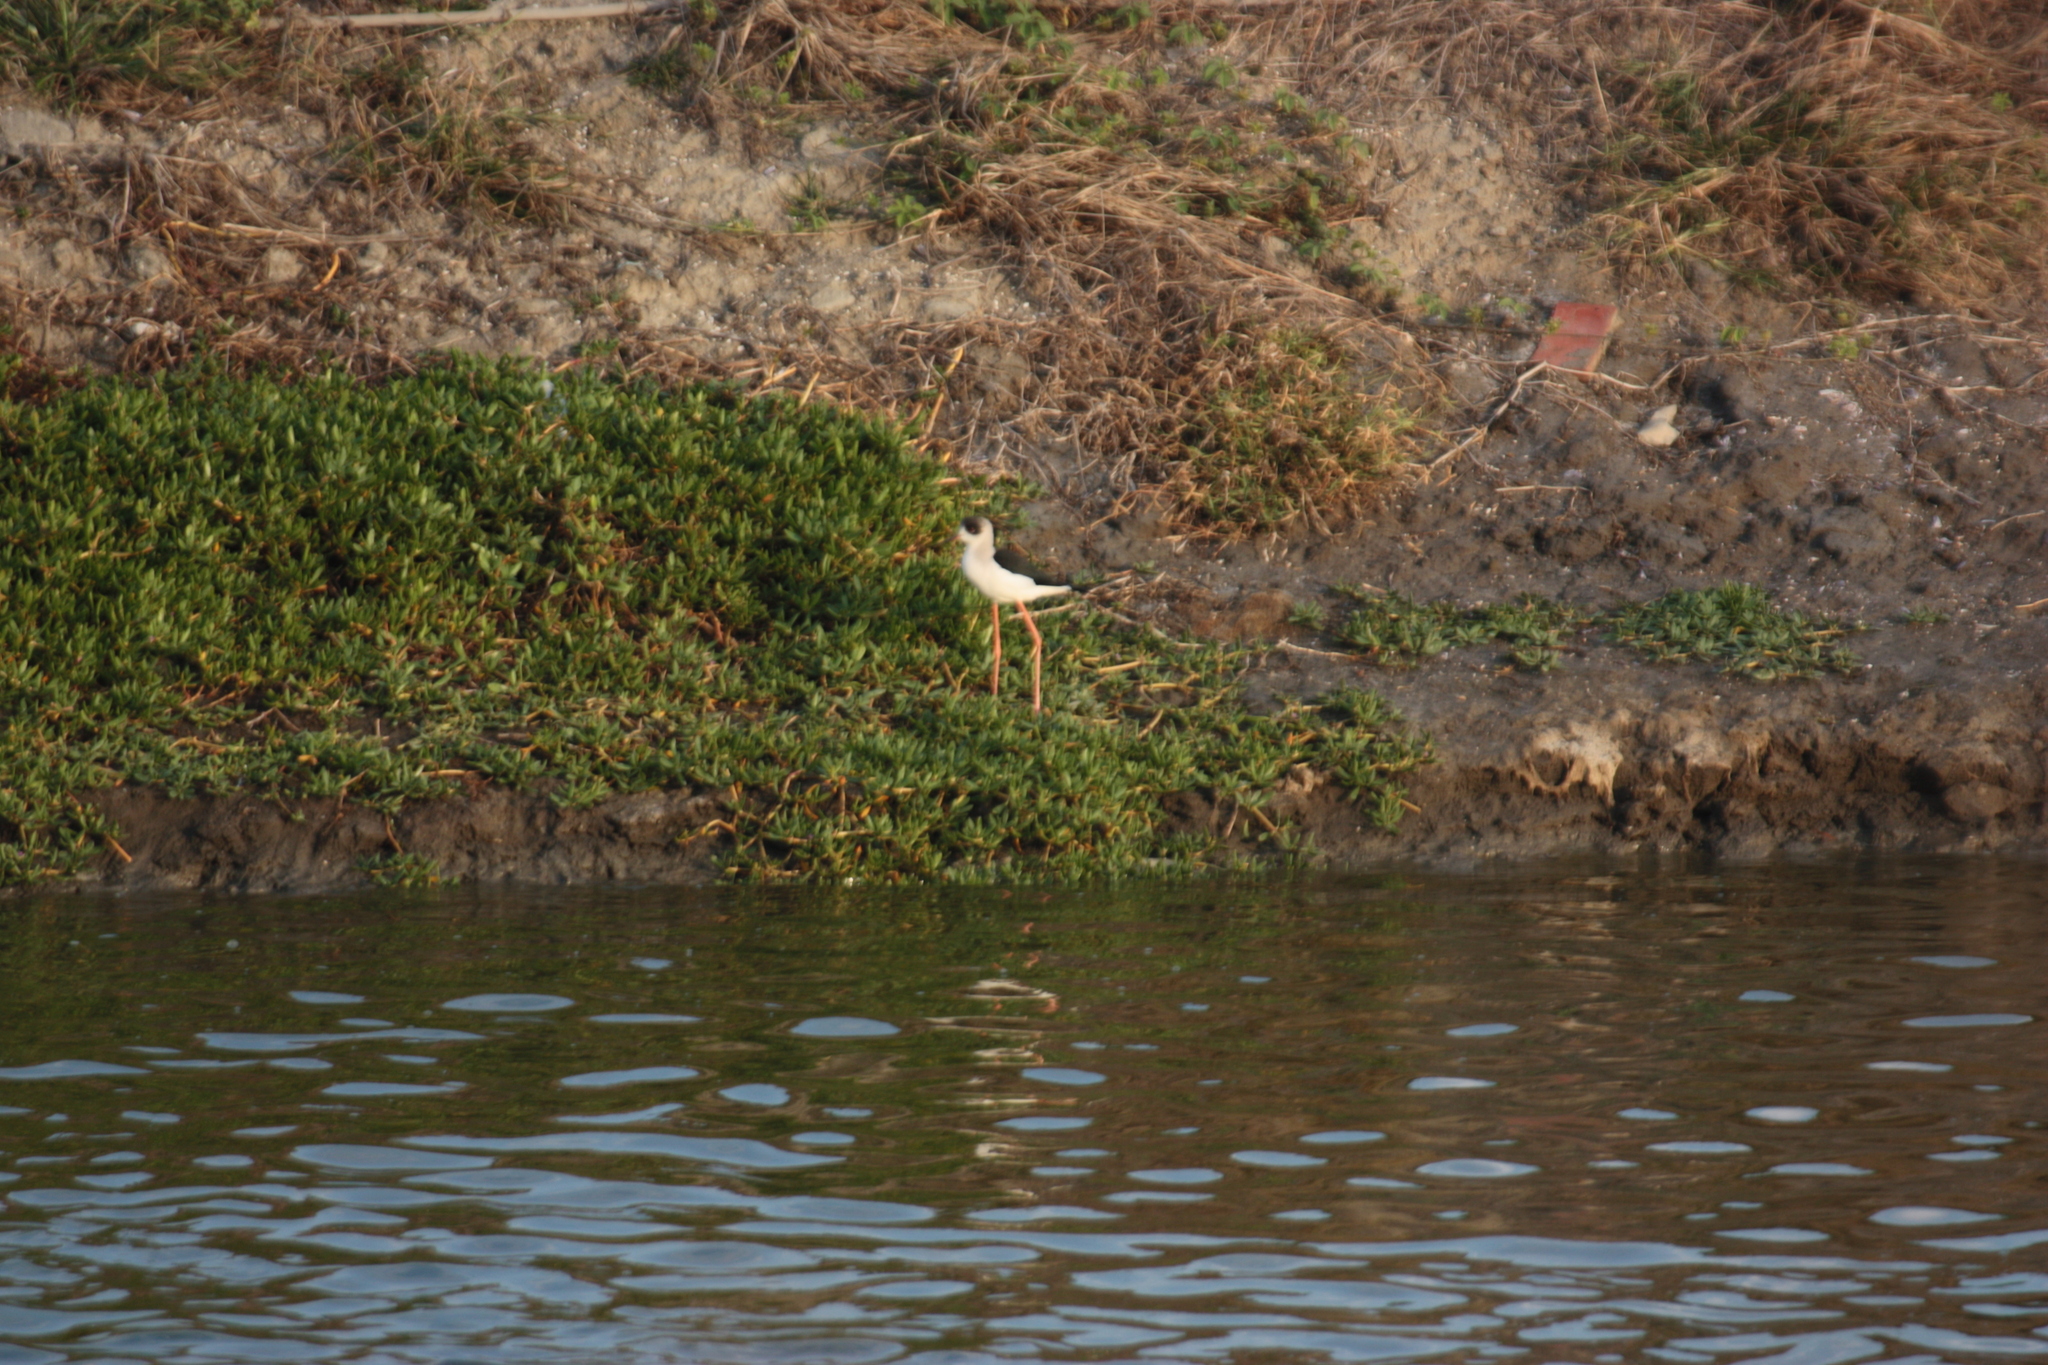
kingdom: Animalia
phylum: Chordata
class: Aves
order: Charadriiformes
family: Recurvirostridae
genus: Himantopus
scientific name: Himantopus himantopus
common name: Black-winged stilt
